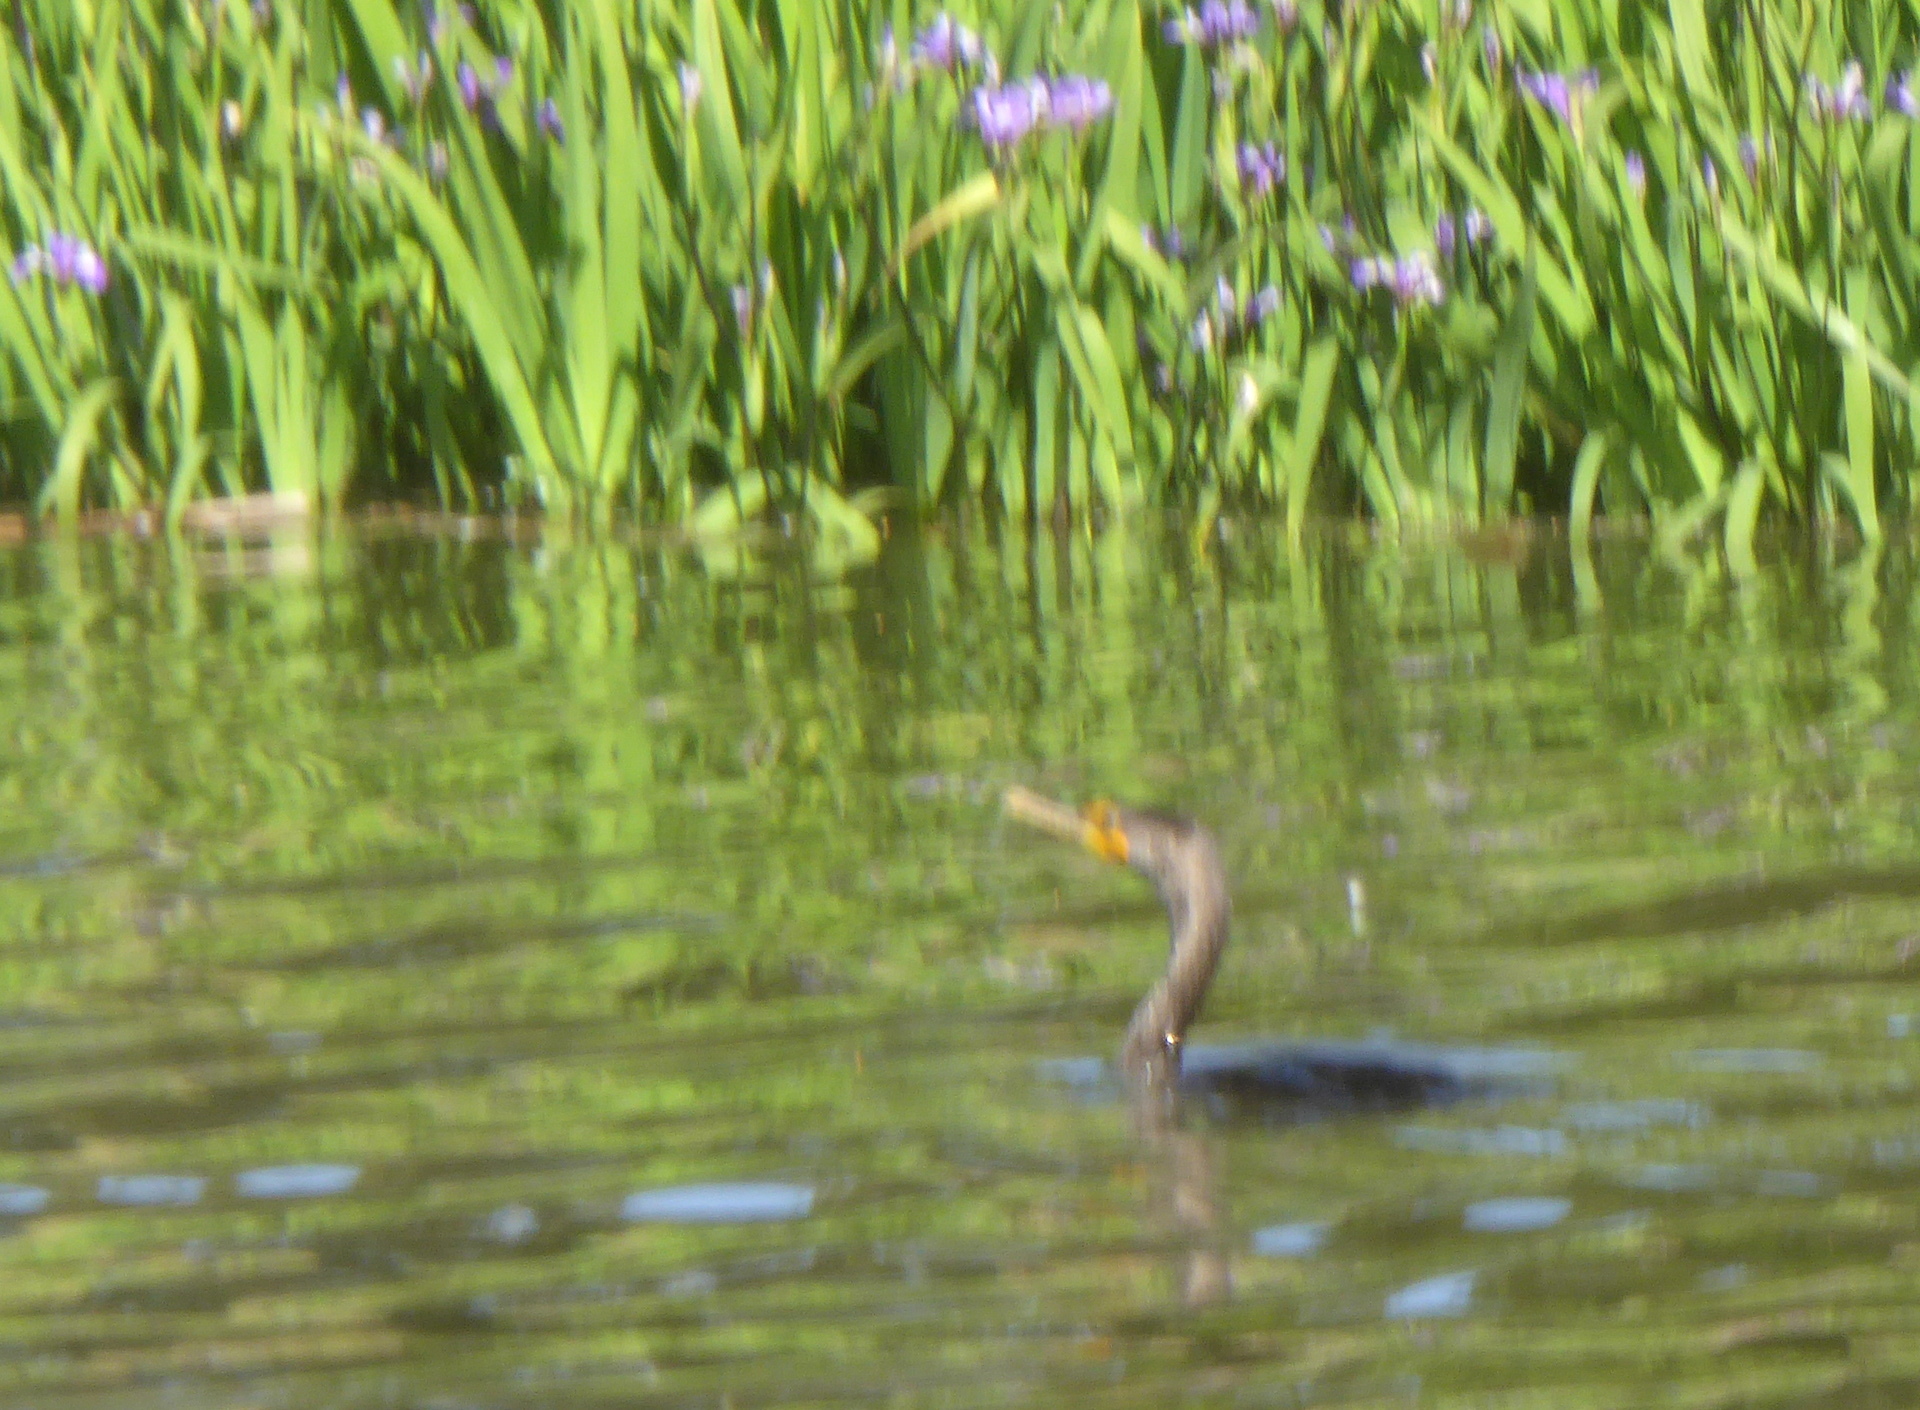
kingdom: Animalia
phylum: Chordata
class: Aves
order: Suliformes
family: Phalacrocoracidae
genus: Phalacrocorax
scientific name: Phalacrocorax auritus
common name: Double-crested cormorant
